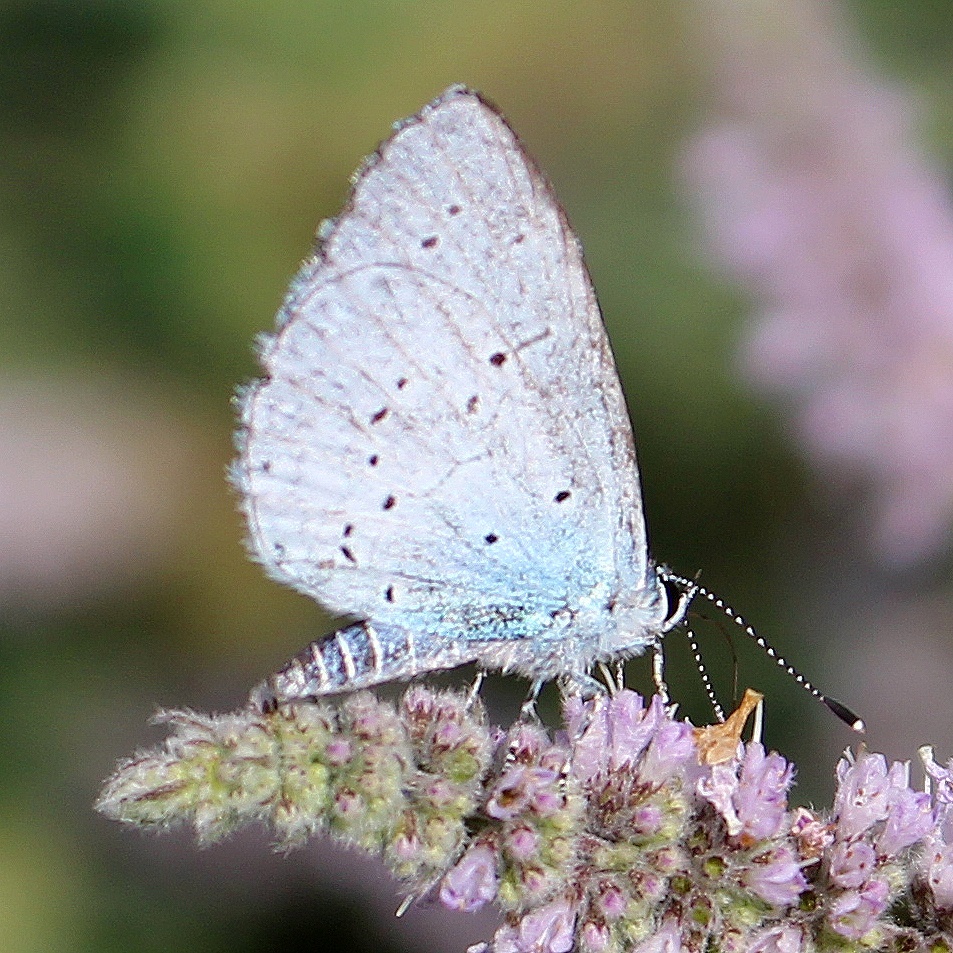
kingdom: Animalia
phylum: Arthropoda
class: Insecta
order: Lepidoptera
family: Lycaenidae
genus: Celastrina
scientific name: Celastrina argiolus
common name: Holly blue
